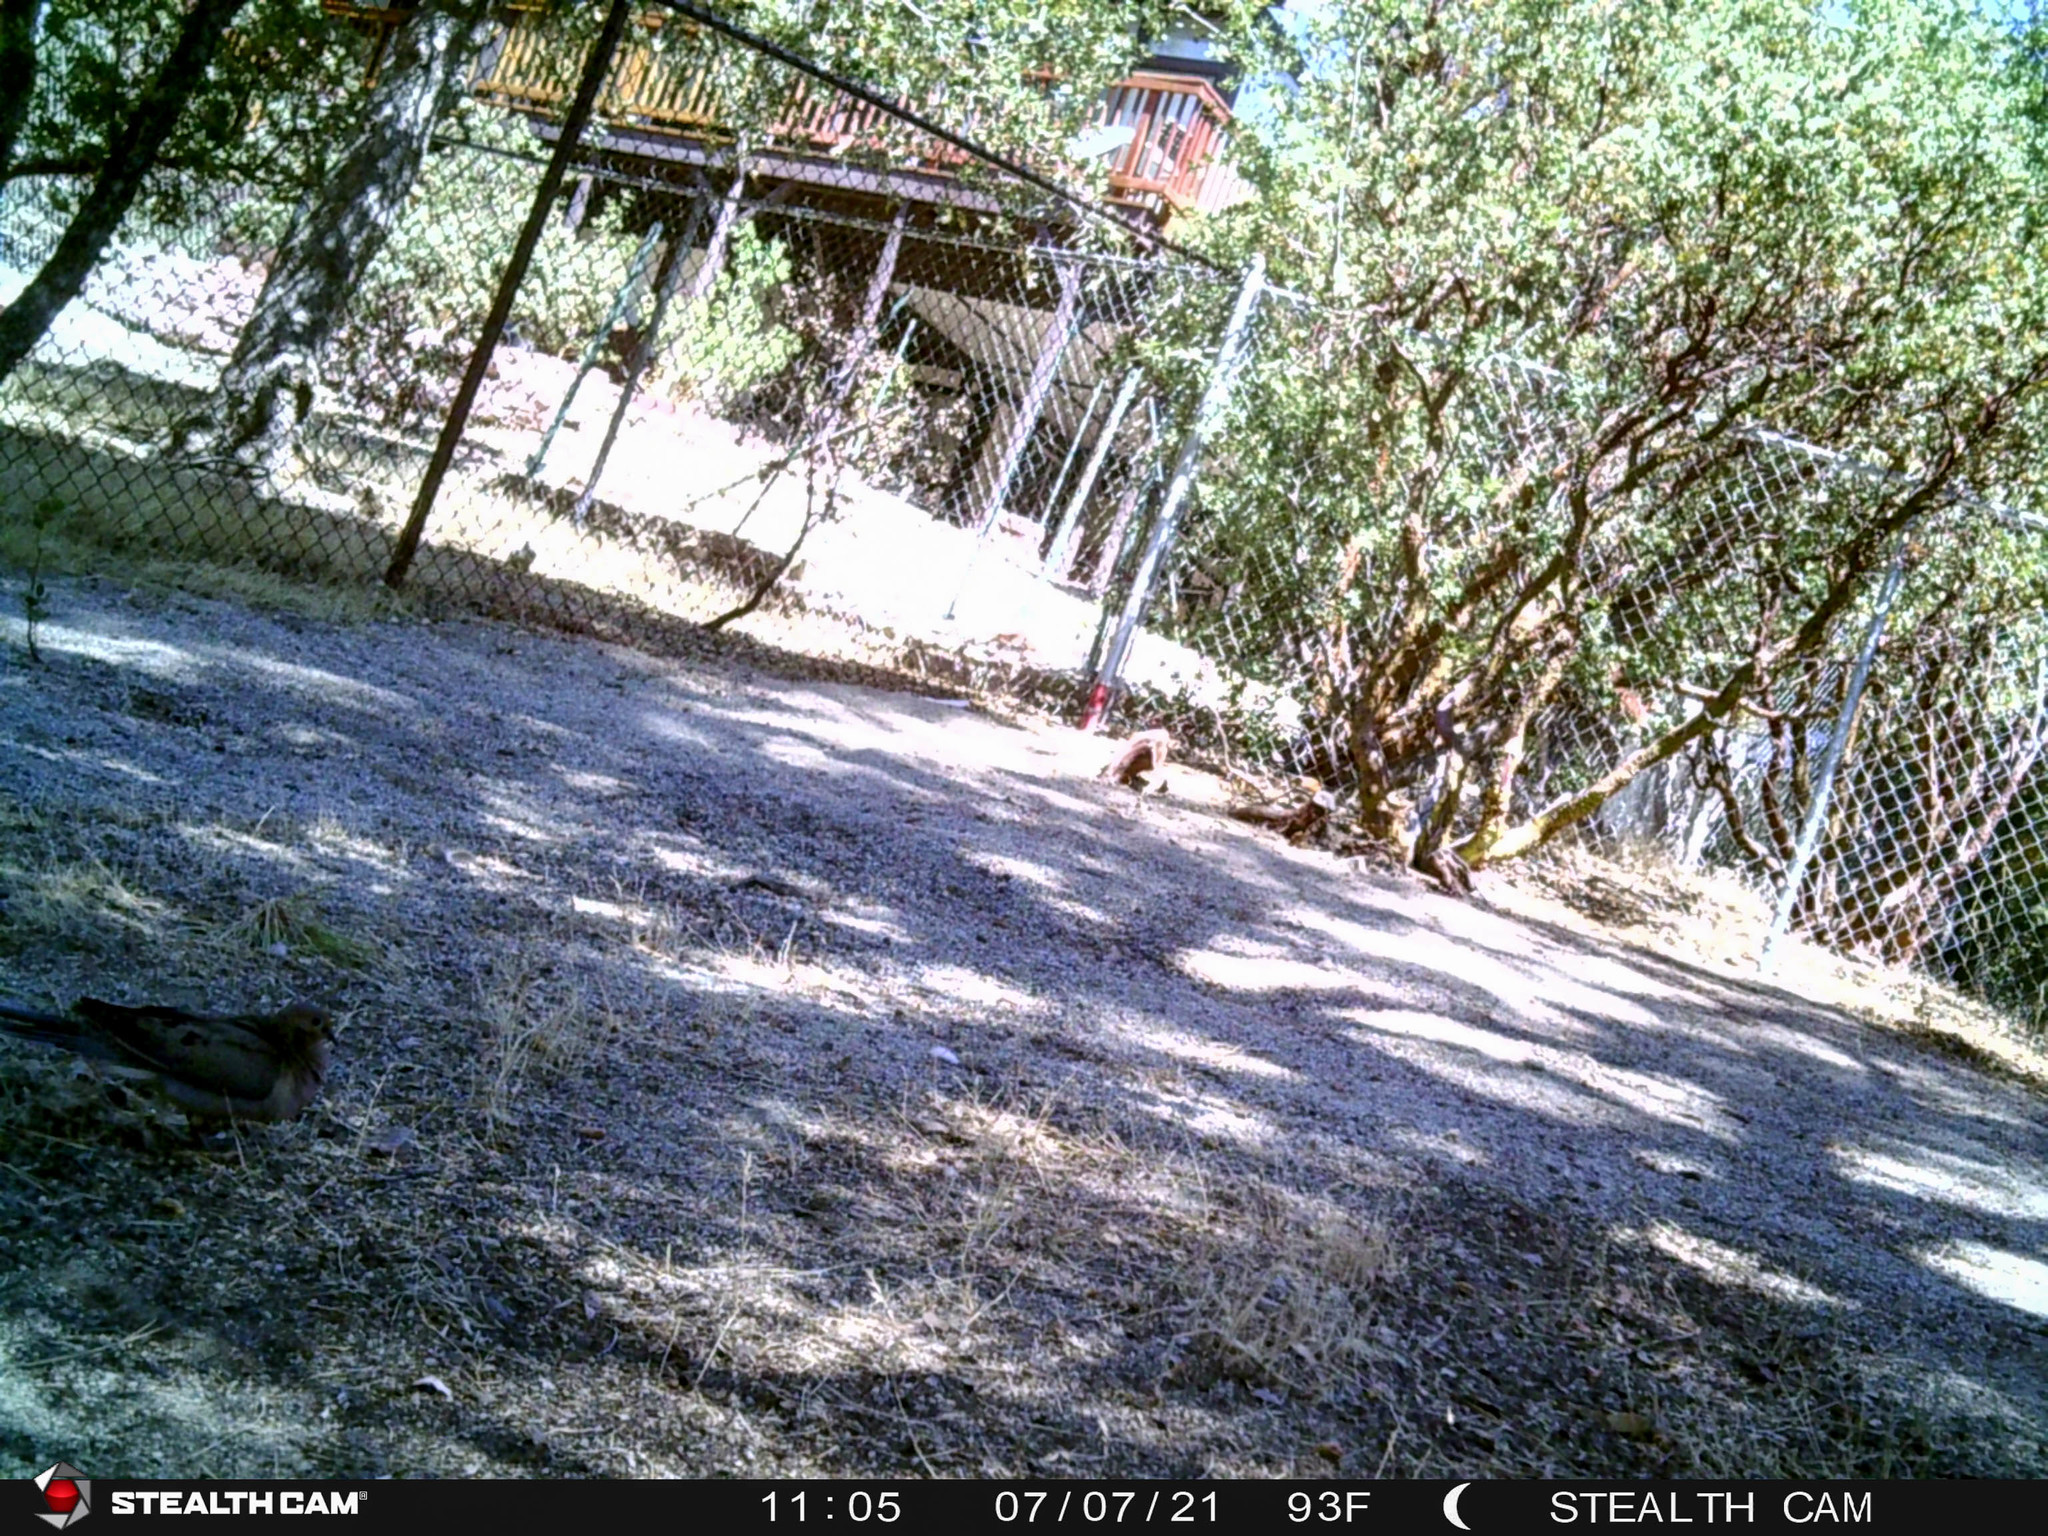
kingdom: Animalia
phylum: Chordata
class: Aves
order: Columbiformes
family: Columbidae
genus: Zenaida
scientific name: Zenaida macroura
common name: Mourning dove
